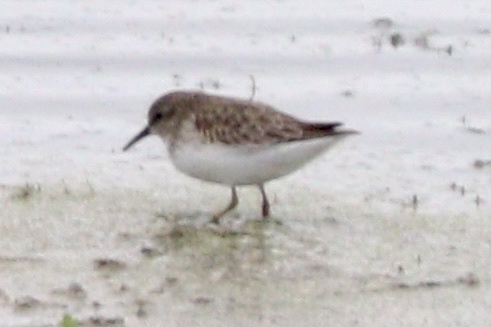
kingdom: Animalia
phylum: Chordata
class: Aves
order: Charadriiformes
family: Scolopacidae
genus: Calidris
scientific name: Calidris minutilla
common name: Least sandpiper
